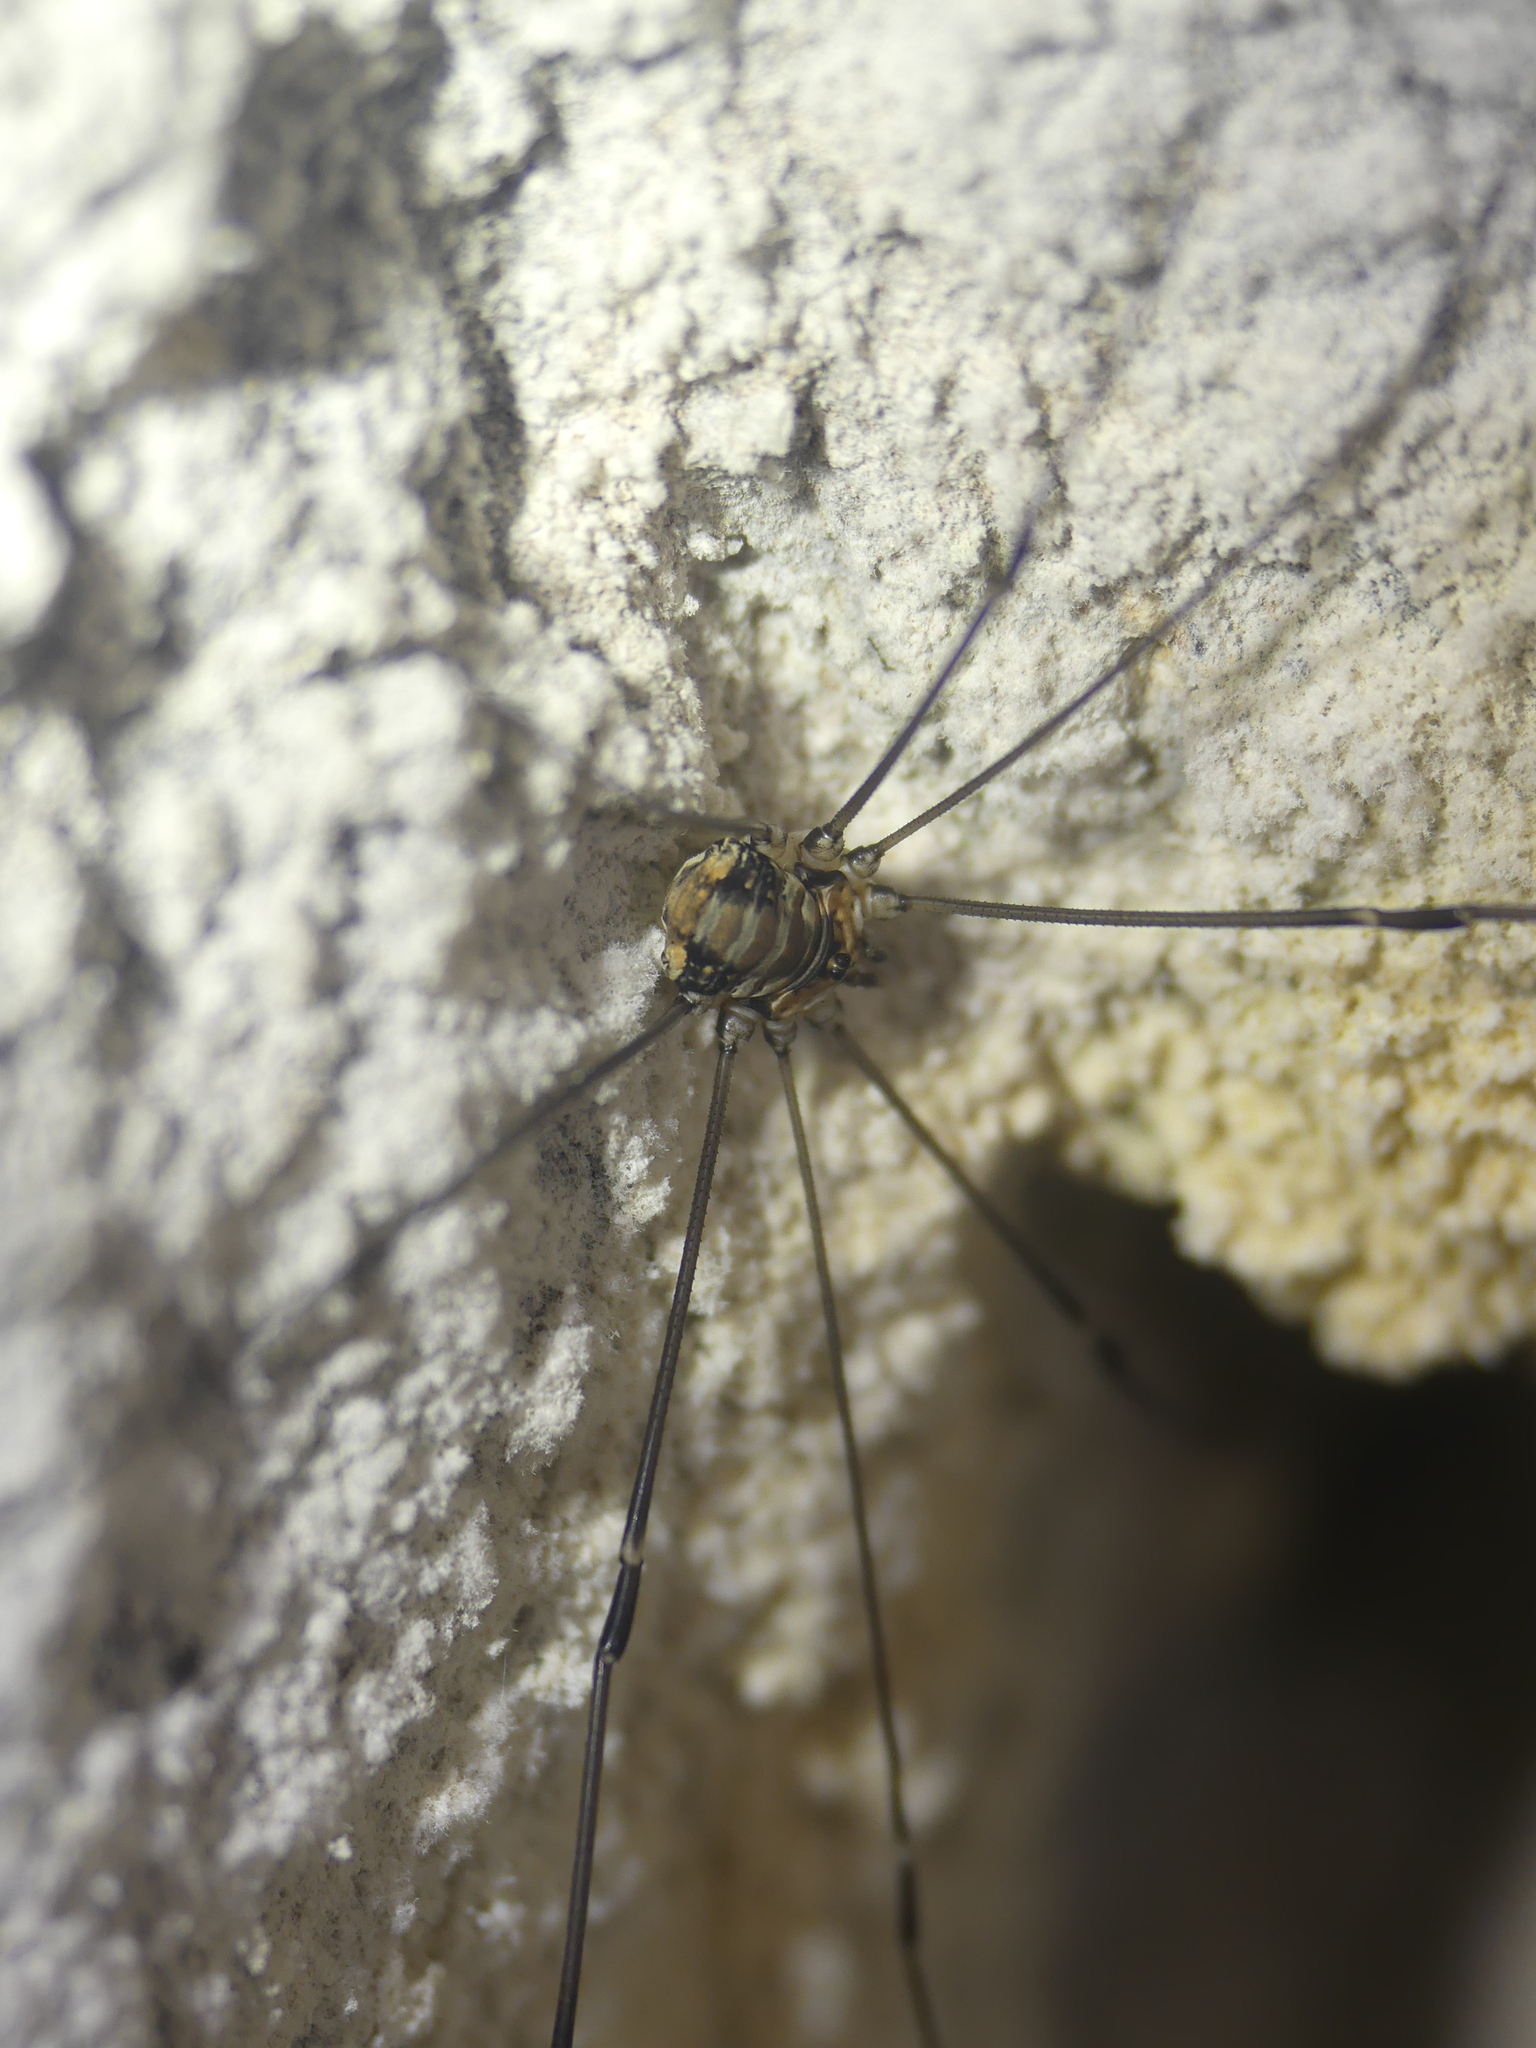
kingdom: Animalia
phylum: Arthropoda
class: Arachnida
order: Opiliones
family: Sclerosomatidae
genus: Leiobunum
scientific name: Leiobunum limbatum
